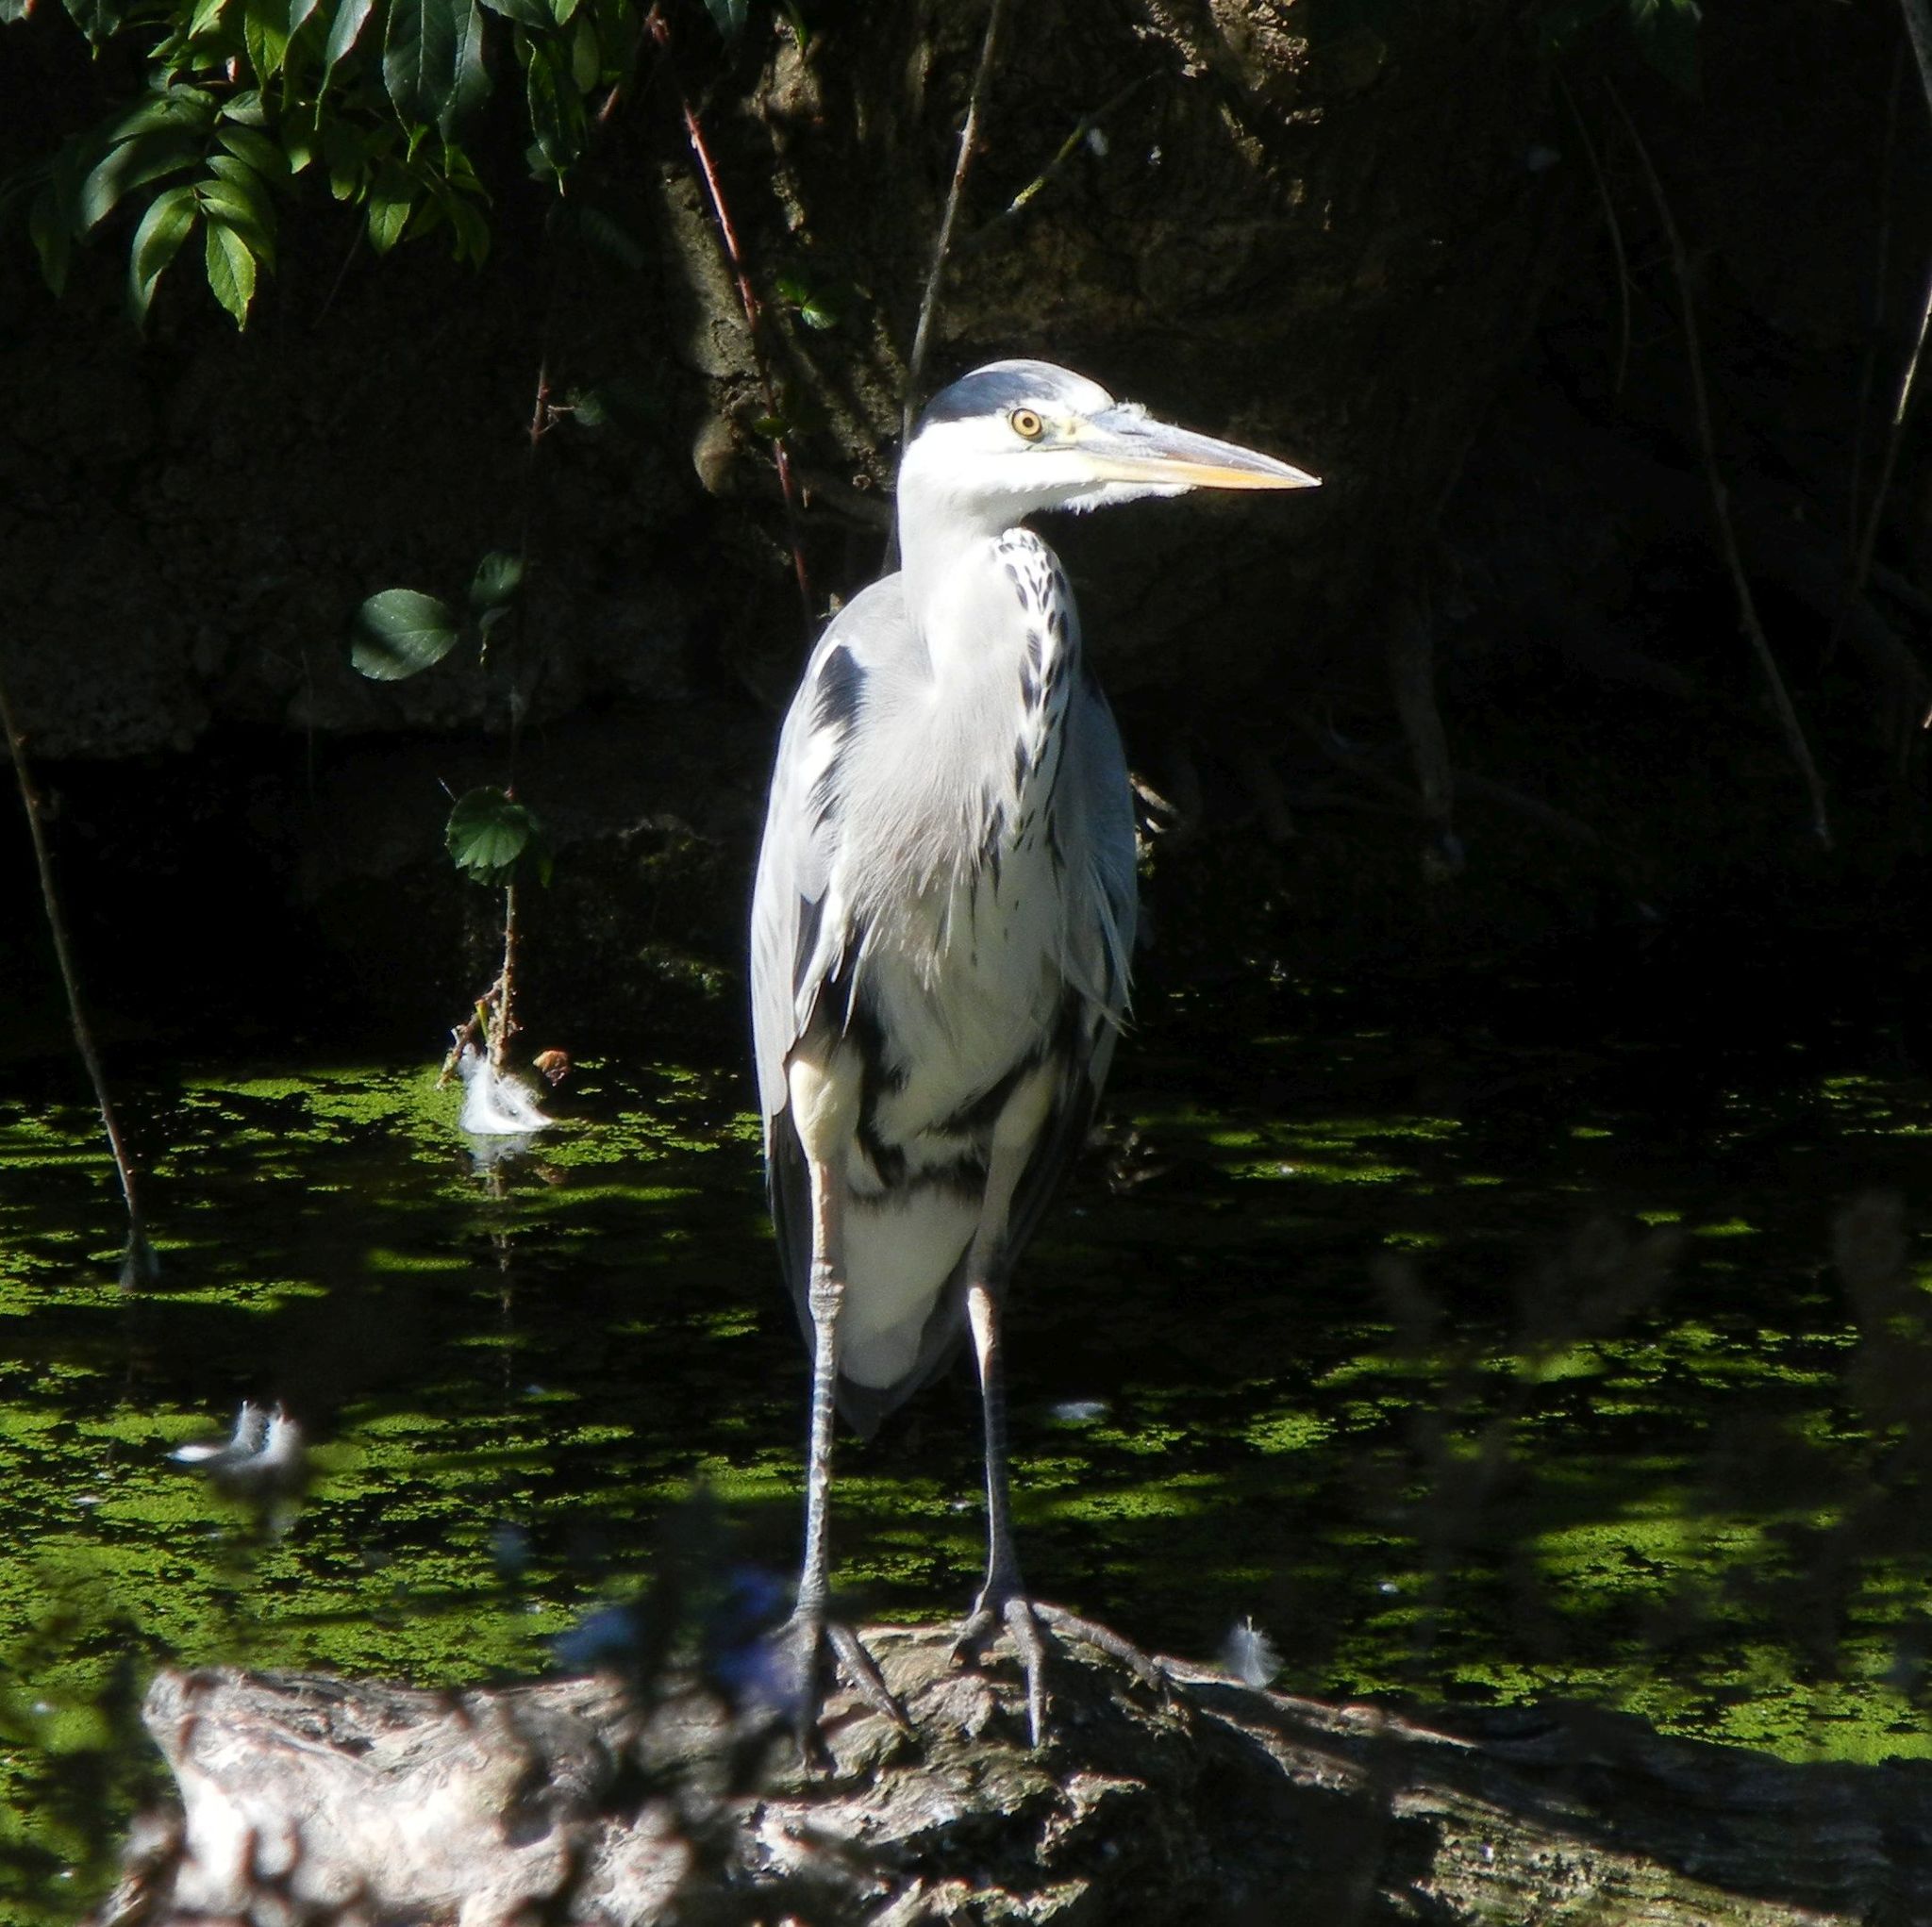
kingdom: Animalia
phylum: Chordata
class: Aves
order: Pelecaniformes
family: Ardeidae
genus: Ardea
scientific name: Ardea cinerea
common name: Grey heron
